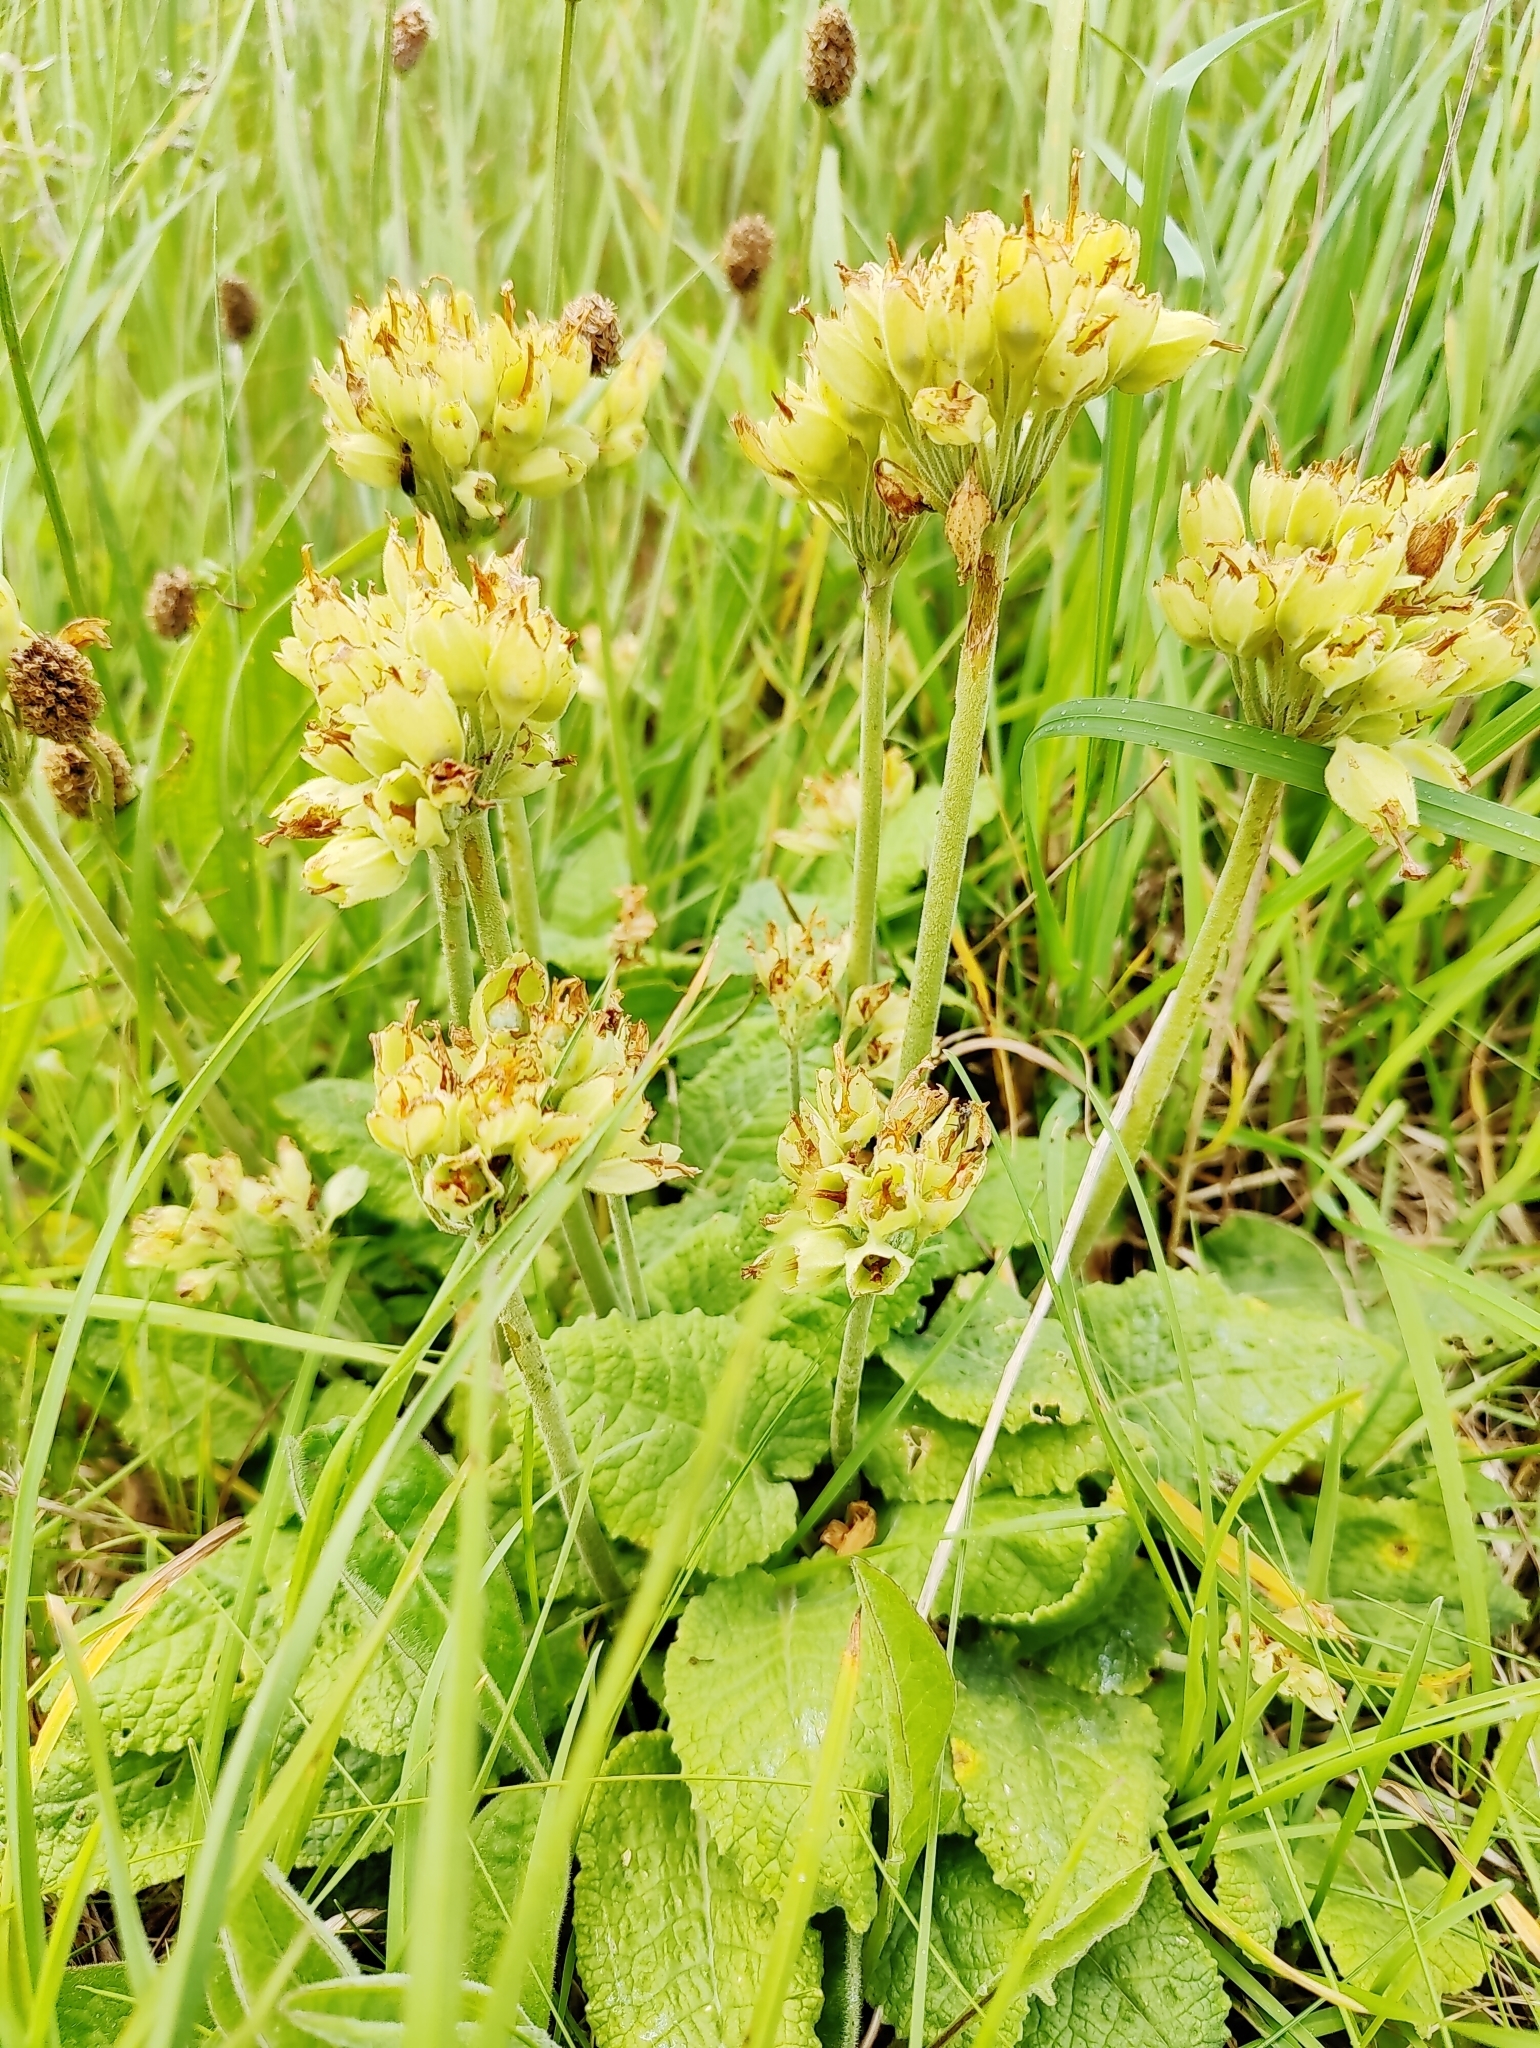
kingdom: Plantae
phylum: Tracheophyta
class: Magnoliopsida
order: Ericales
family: Primulaceae
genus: Primula
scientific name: Primula veris
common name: Cowslip
